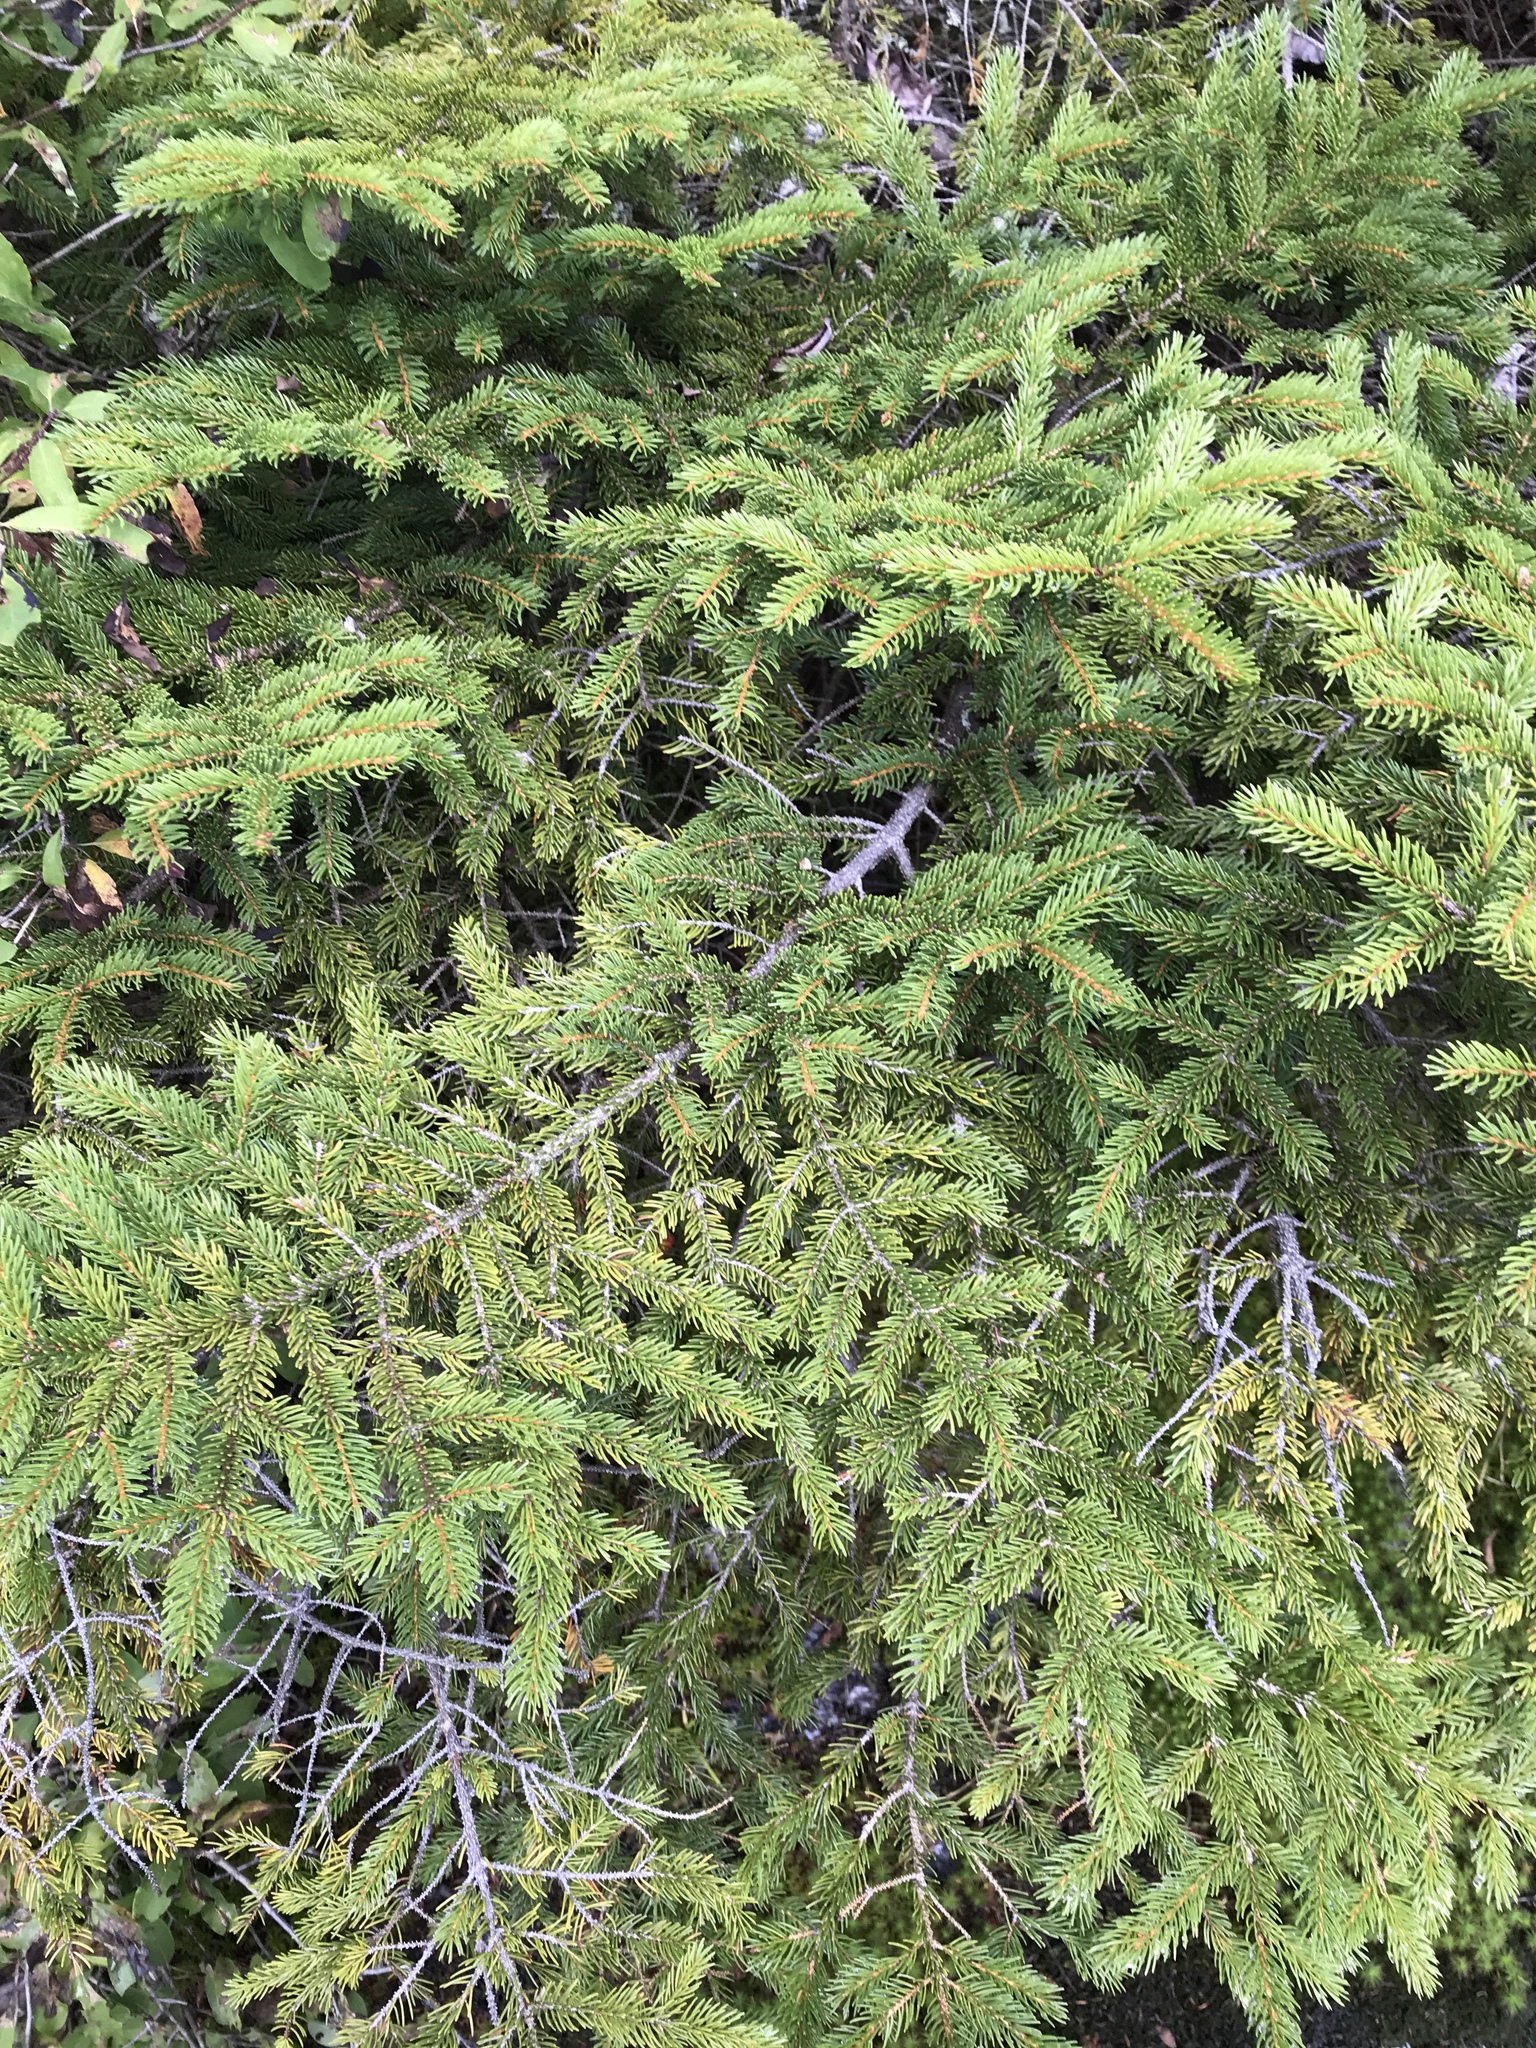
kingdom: Plantae
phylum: Tracheophyta
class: Pinopsida
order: Pinales
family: Pinaceae
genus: Picea
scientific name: Picea rubens
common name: Red spruce
